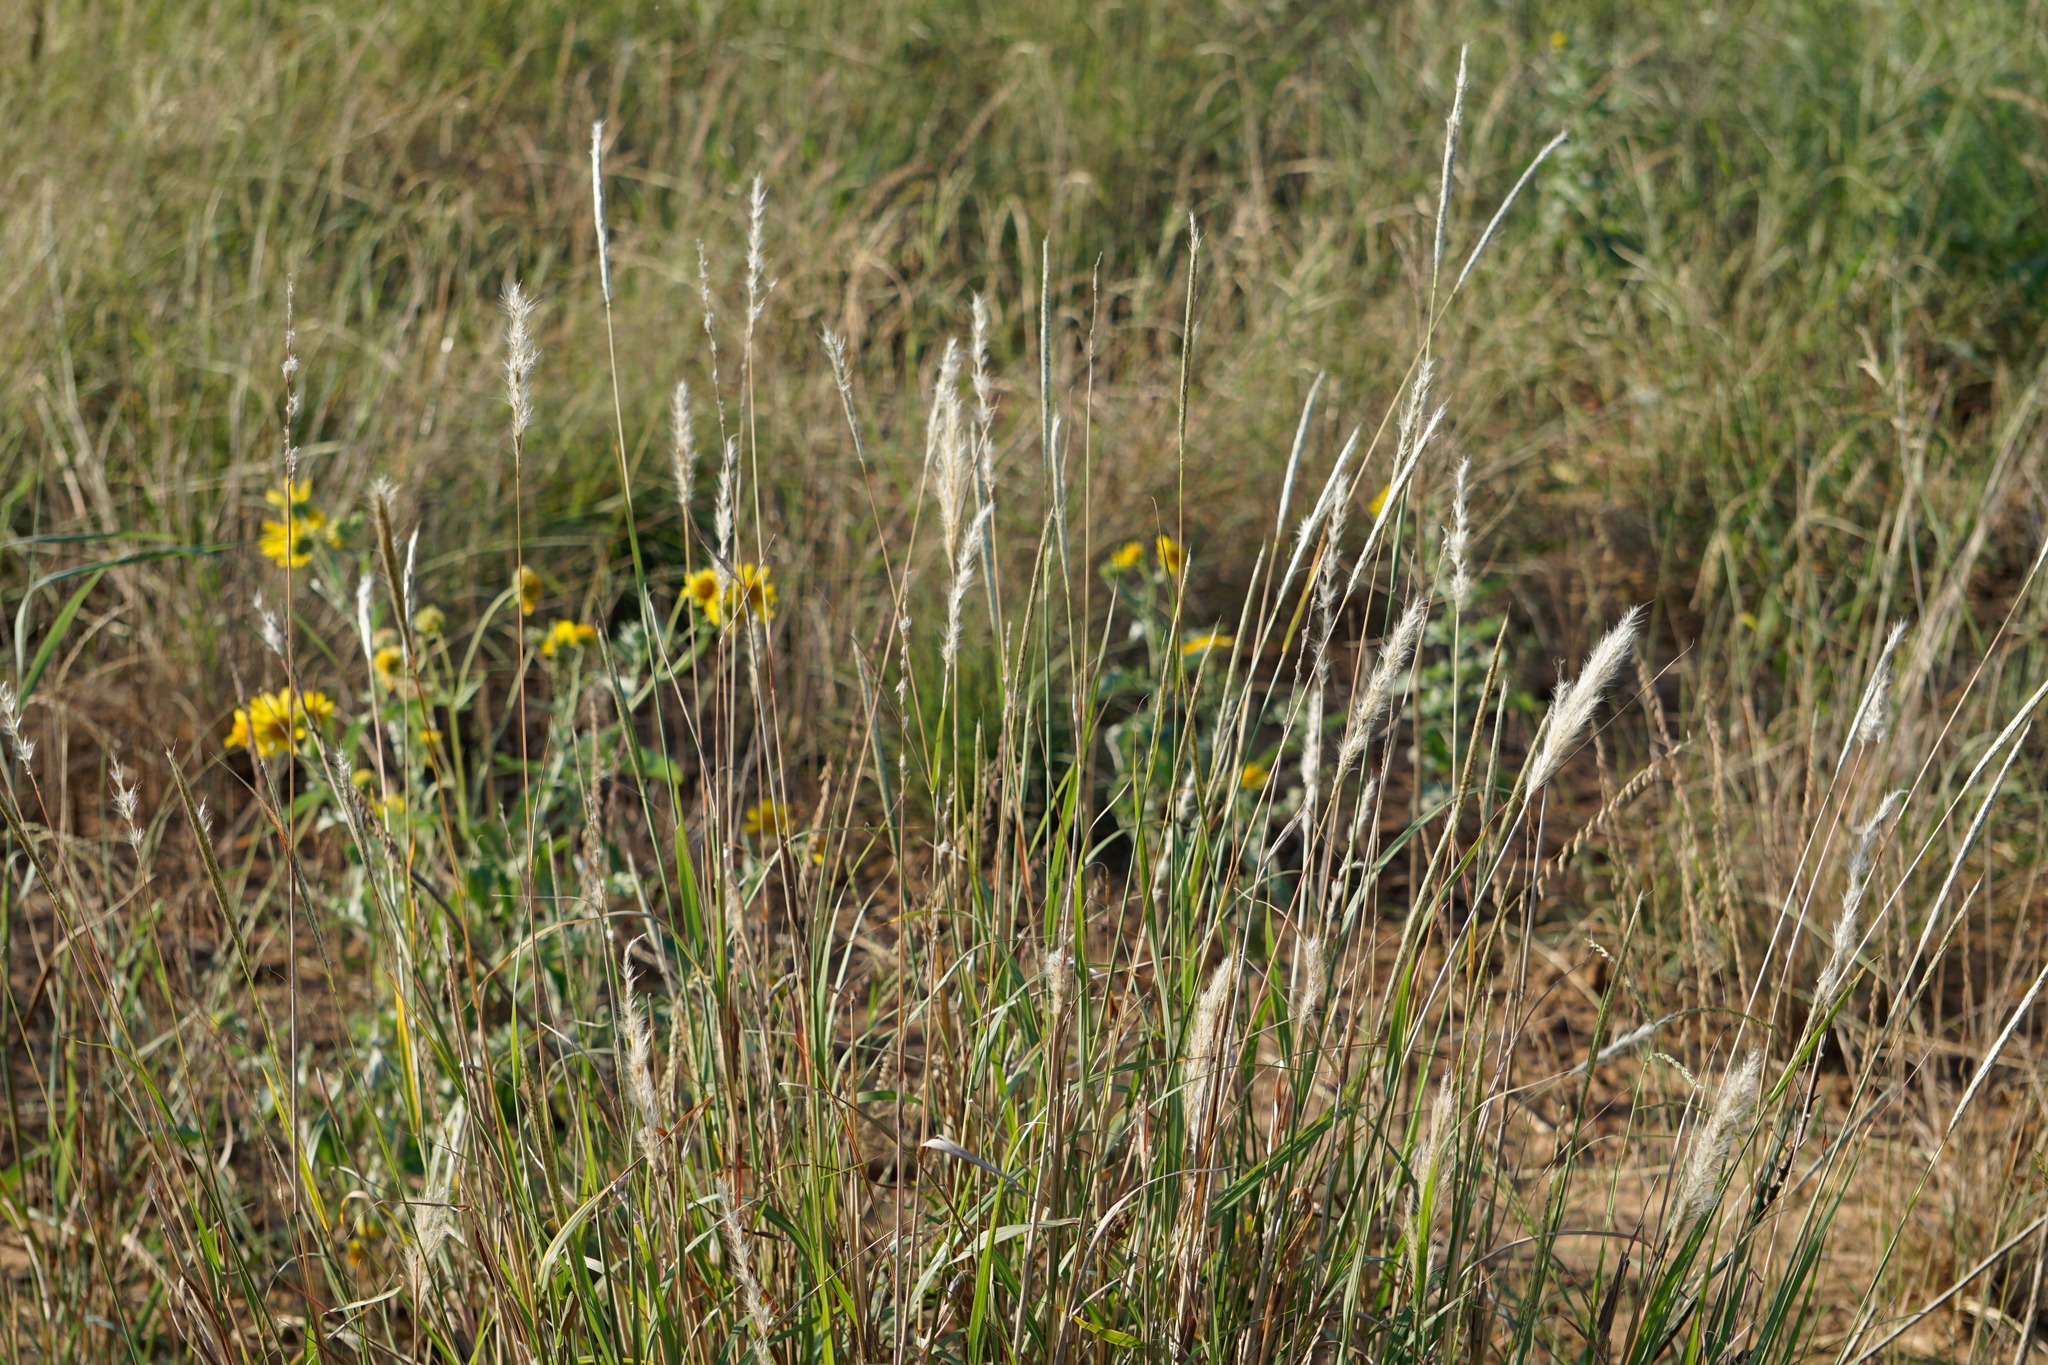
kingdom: Plantae
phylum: Tracheophyta
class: Liliopsida
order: Poales
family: Poaceae
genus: Bothriochloa
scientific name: Bothriochloa torreyana
